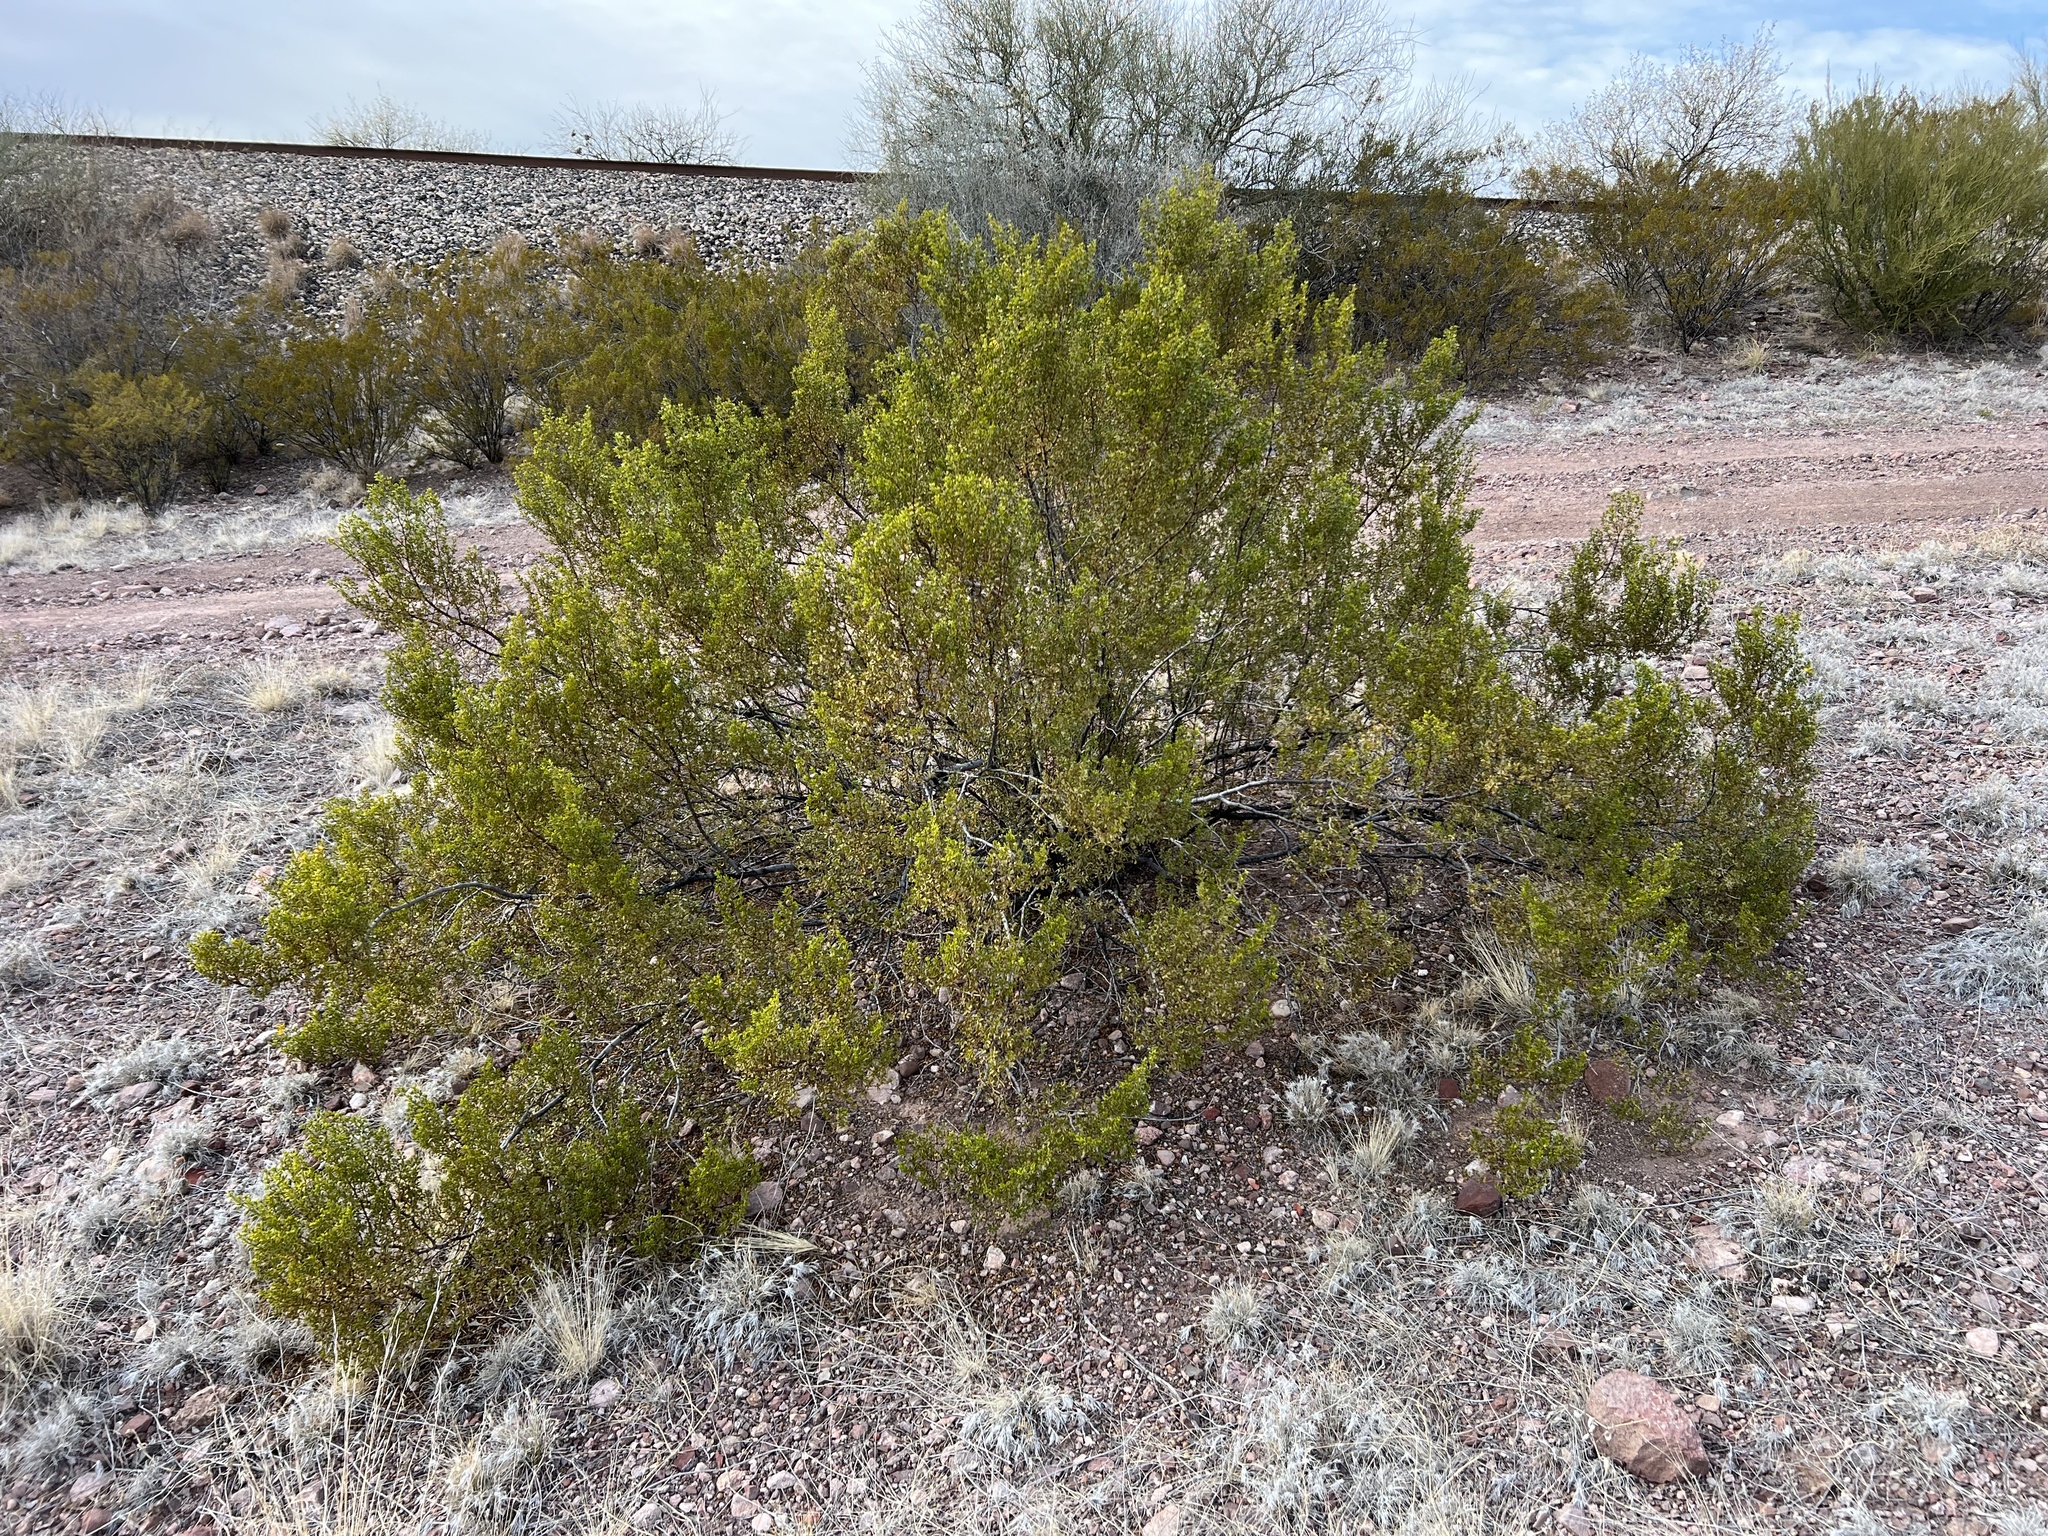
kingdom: Plantae
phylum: Tracheophyta
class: Magnoliopsida
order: Zygophyllales
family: Zygophyllaceae
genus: Larrea
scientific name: Larrea tridentata
